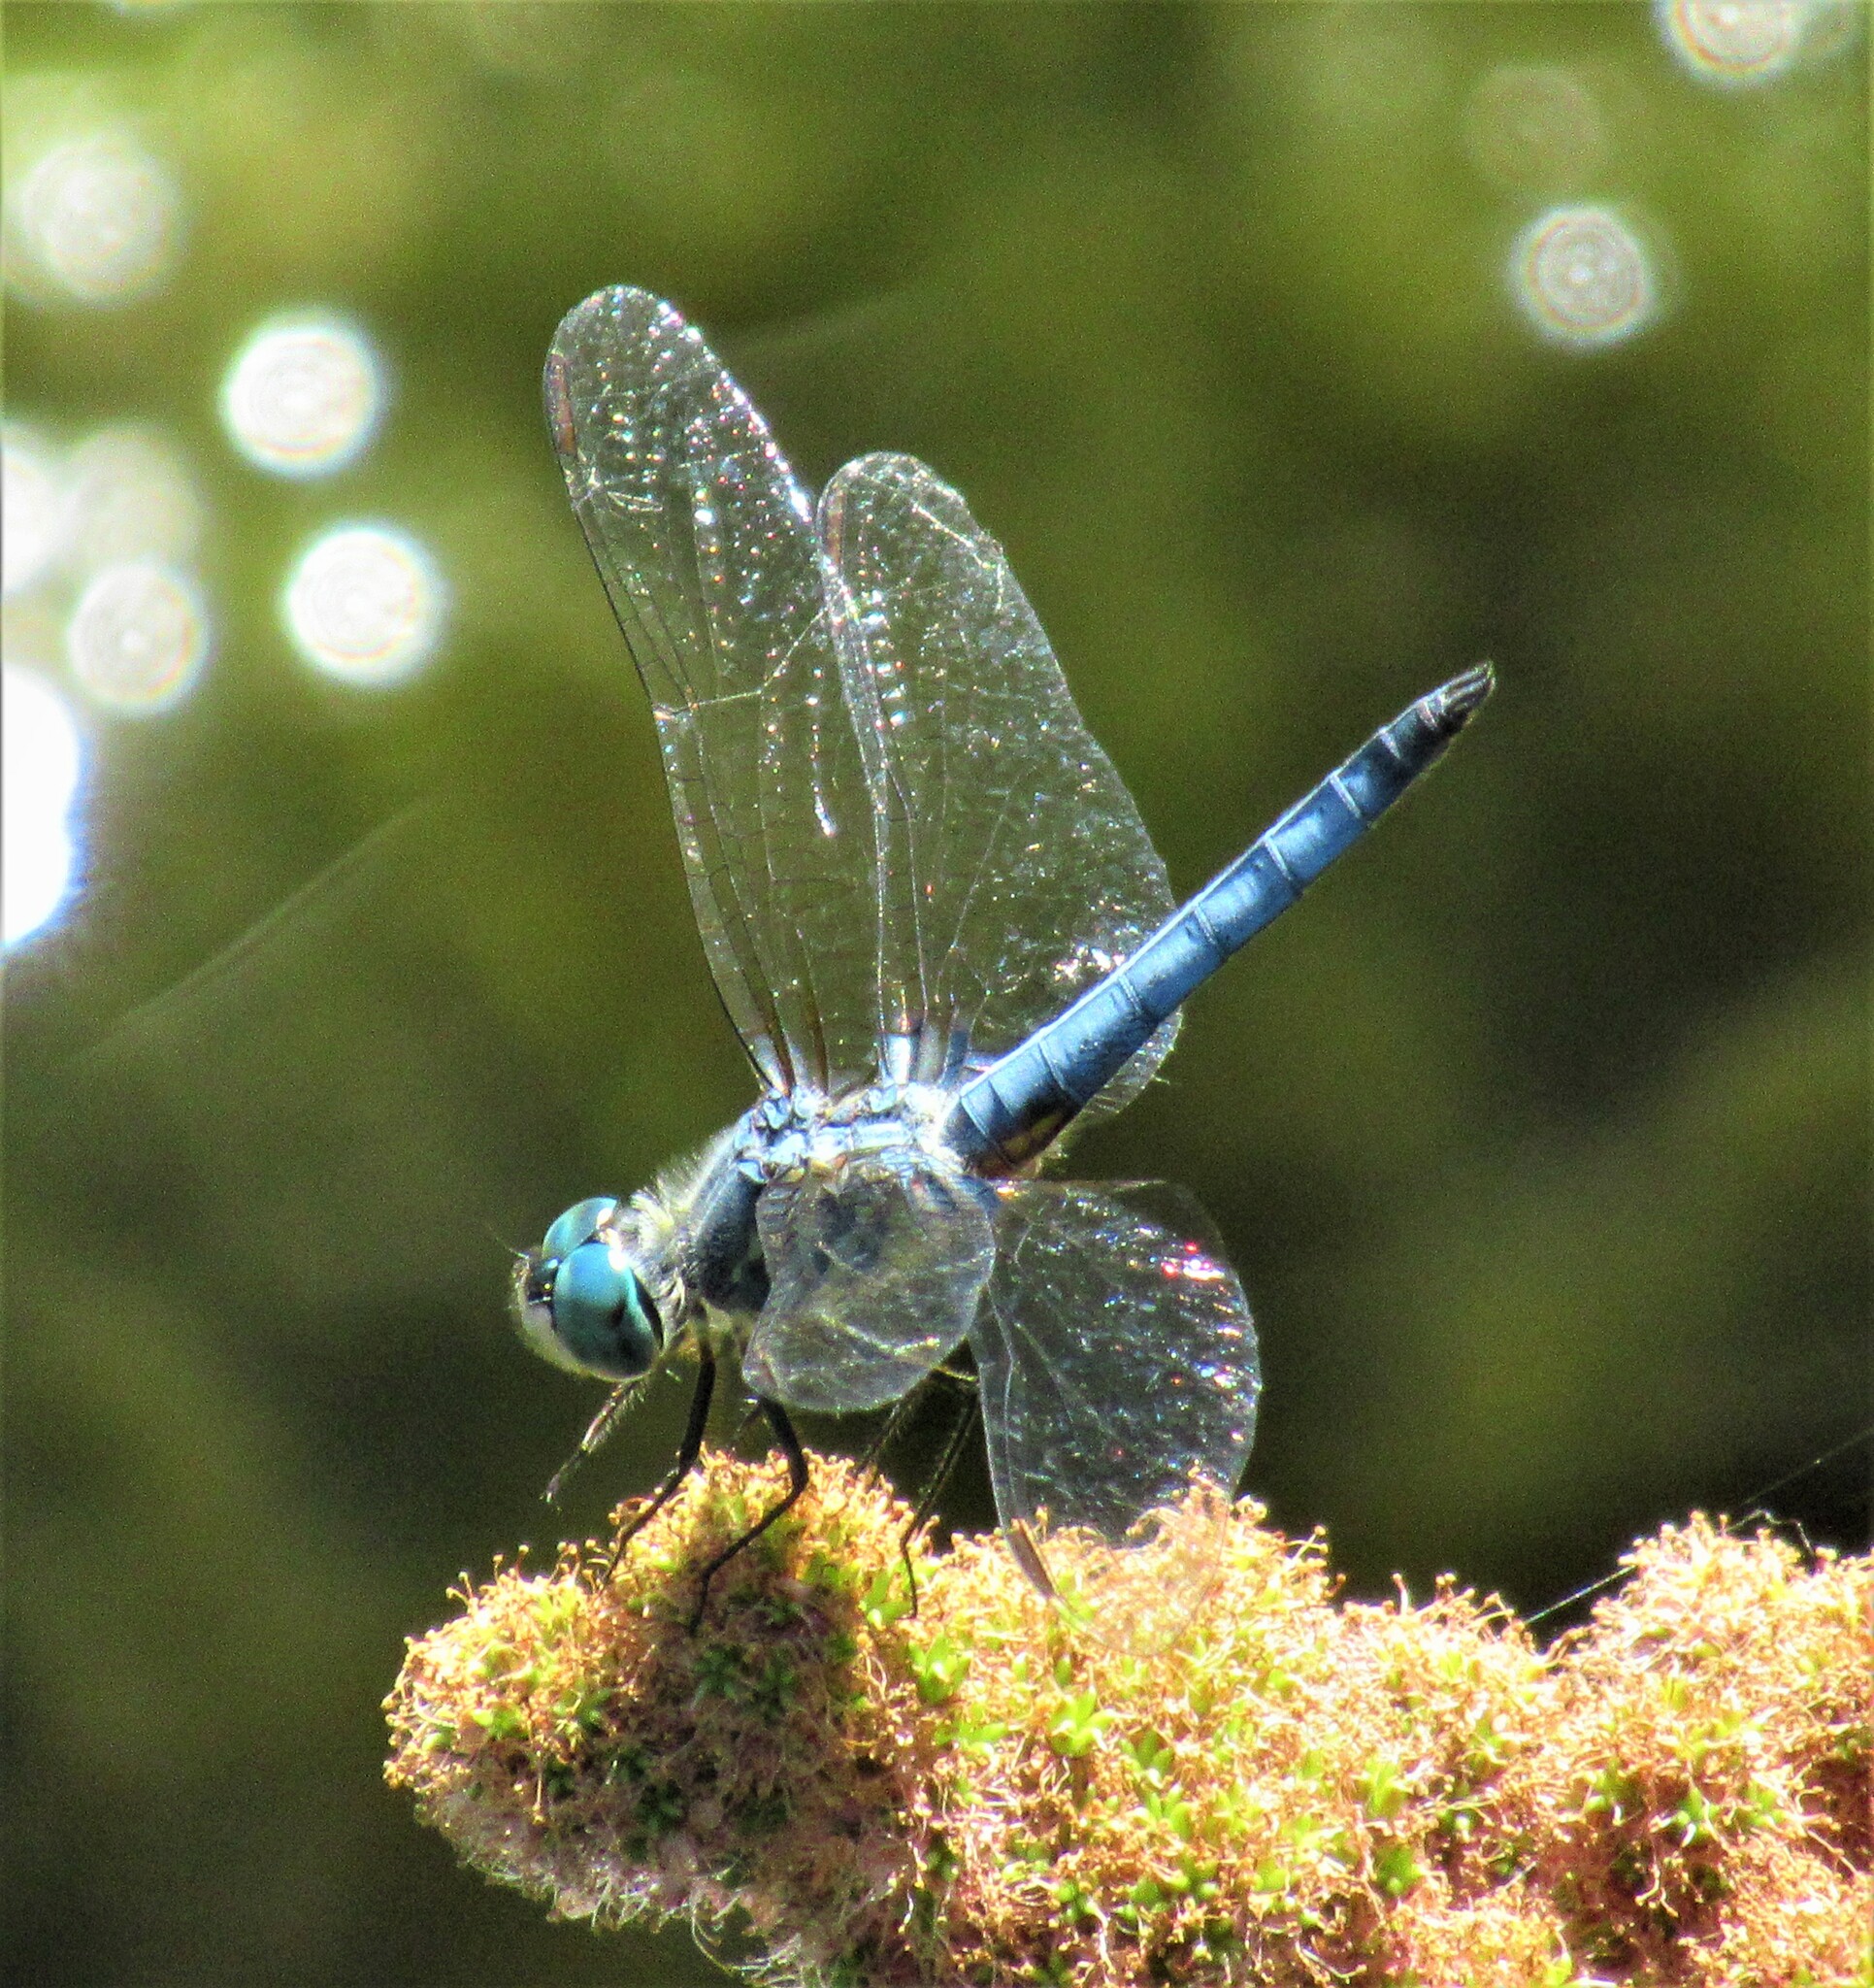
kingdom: Animalia
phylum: Arthropoda
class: Insecta
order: Odonata
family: Libellulidae
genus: Pachydiplax
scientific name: Pachydiplax longipennis
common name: Blue dasher
